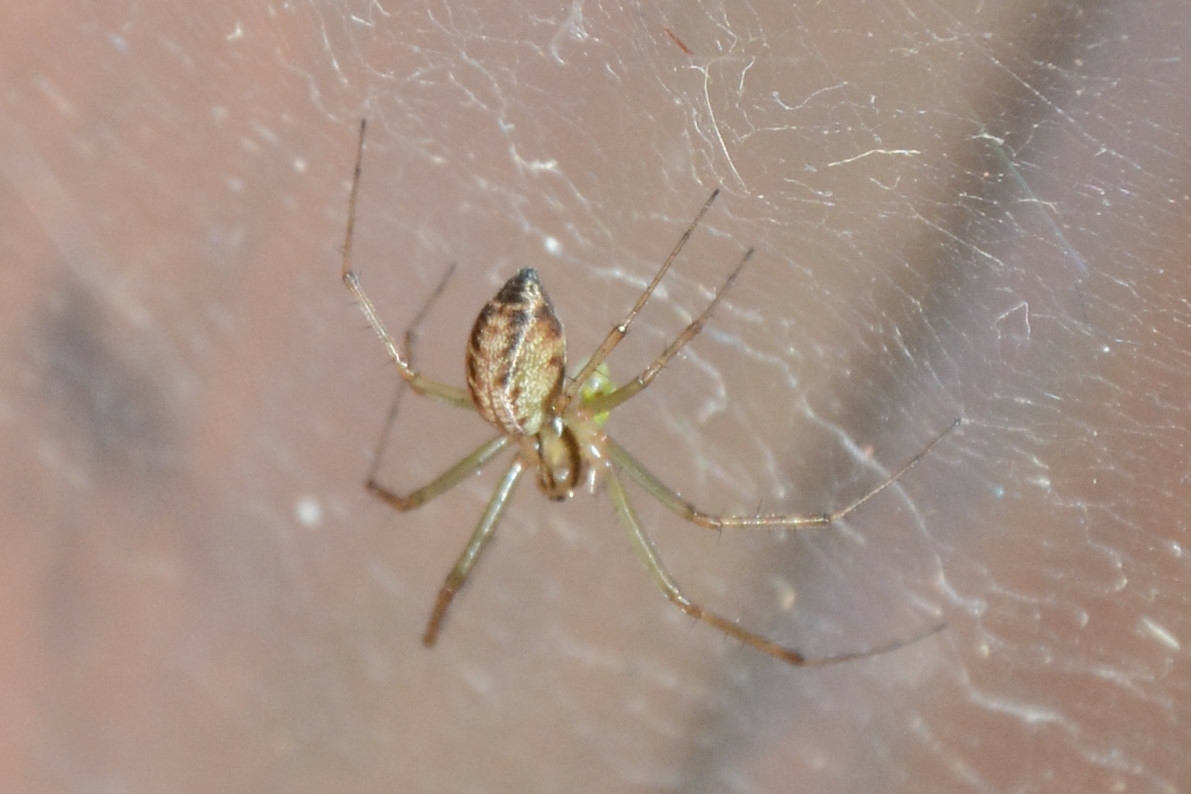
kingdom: Animalia
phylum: Arthropoda
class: Arachnida
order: Araneae
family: Linyphiidae
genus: Linyphia
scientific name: Linyphia triangularis
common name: Money spider
